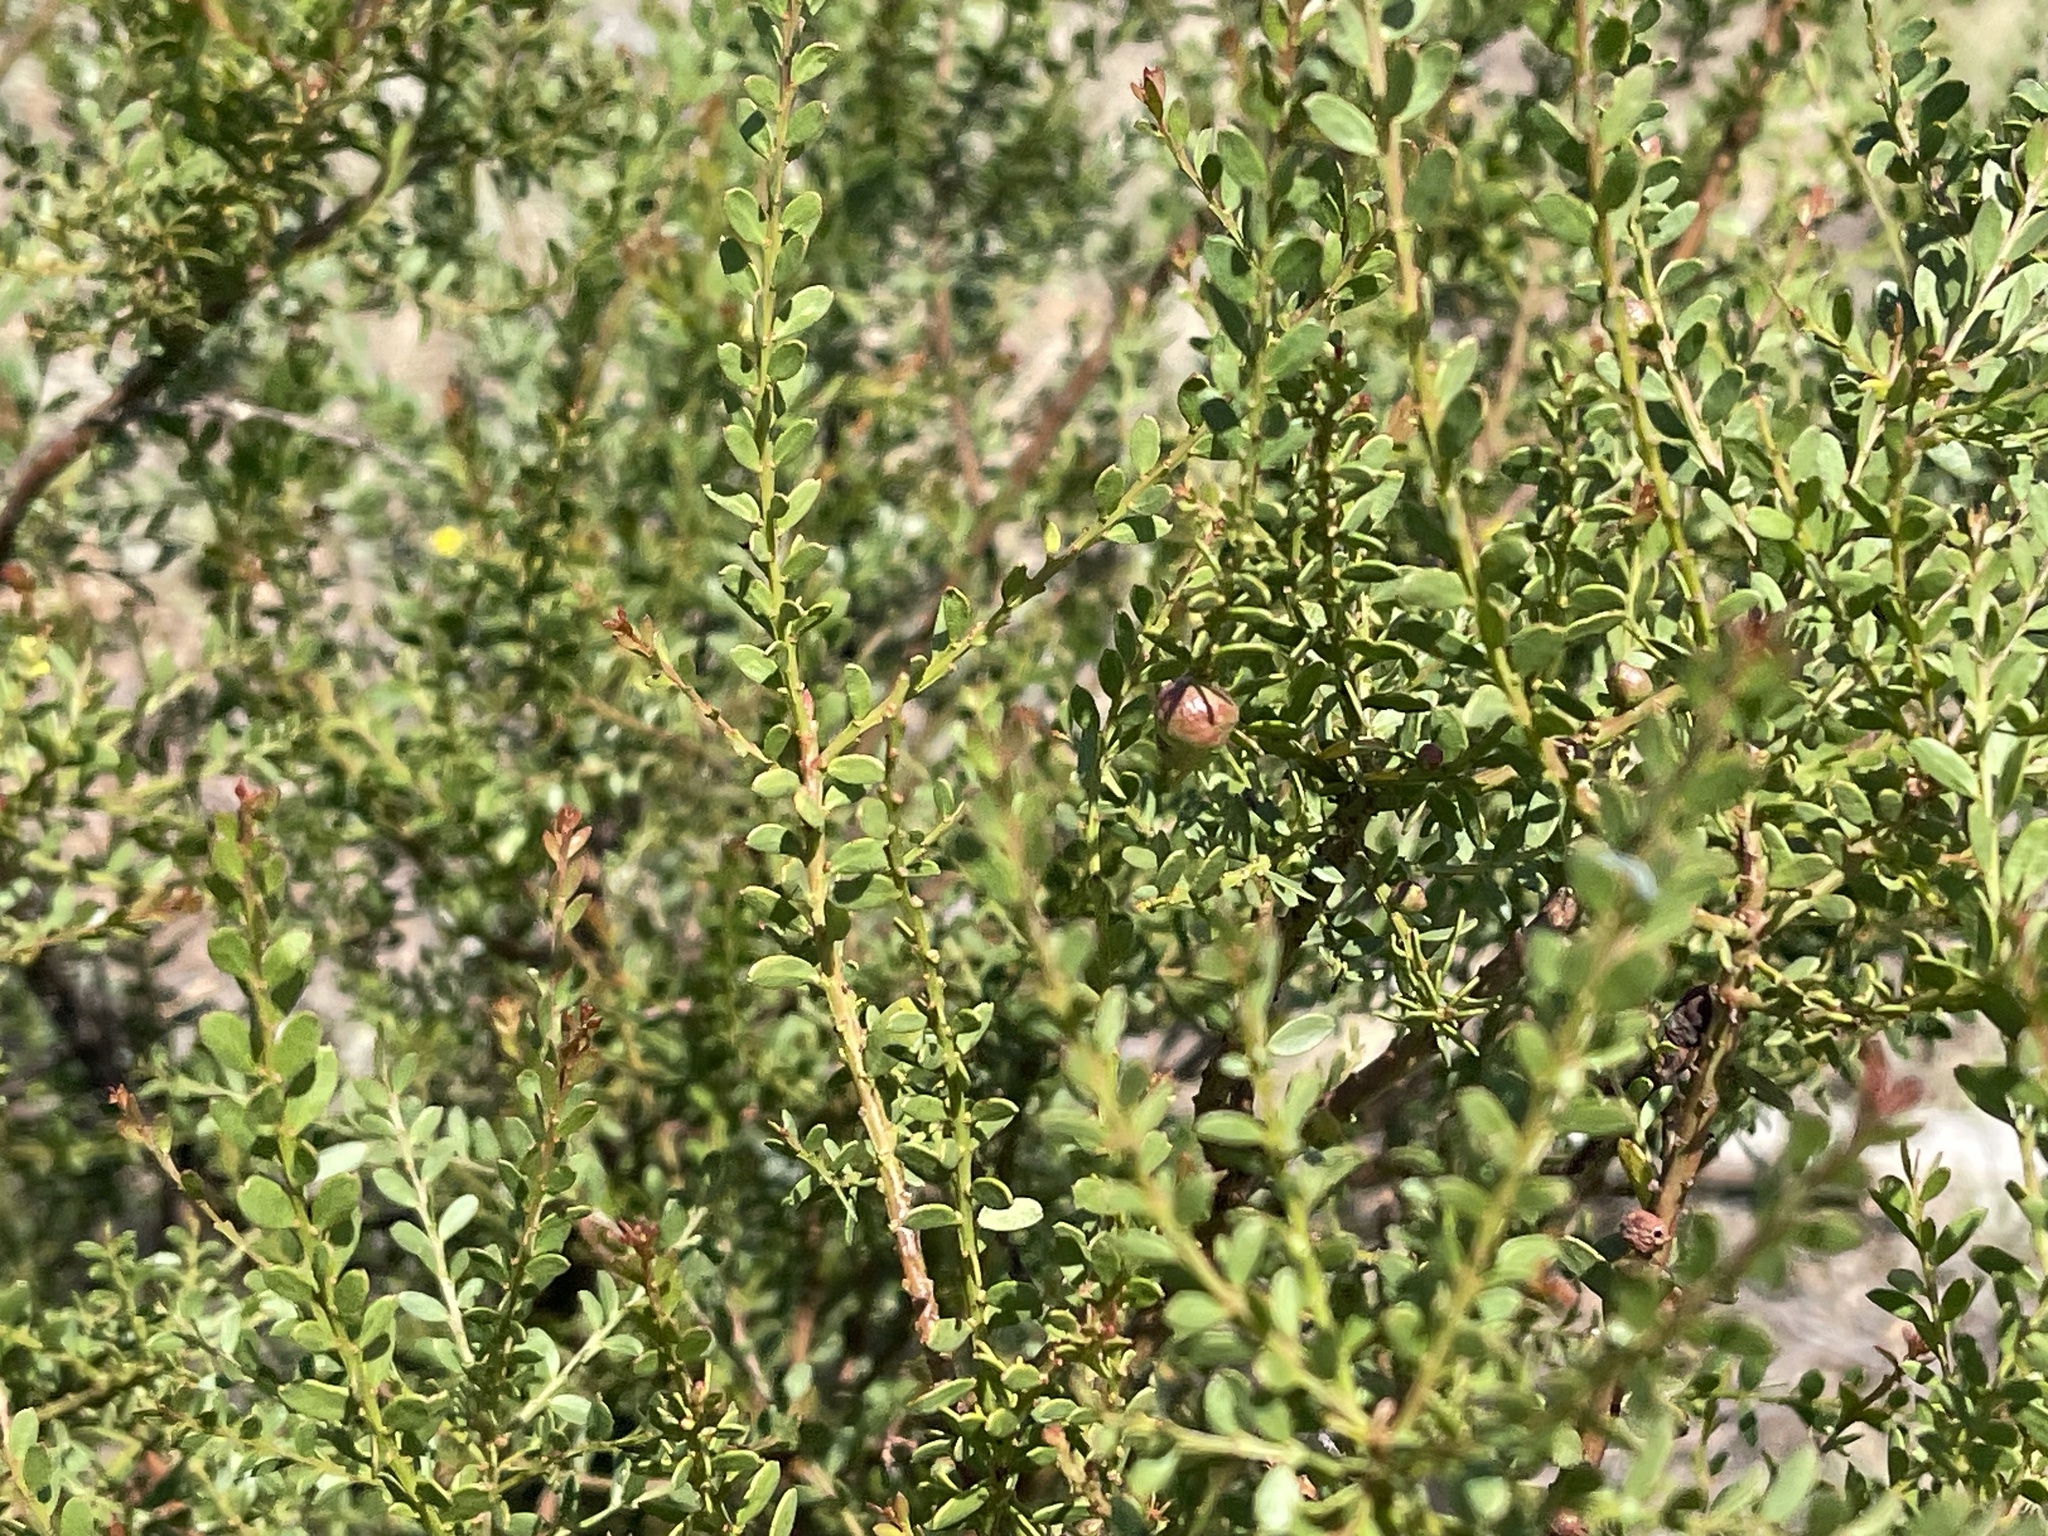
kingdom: Plantae
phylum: Tracheophyta
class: Magnoliopsida
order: Fabales
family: Fabaceae
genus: Acacia
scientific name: Acacia acinacea
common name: Gold-dust acacia
